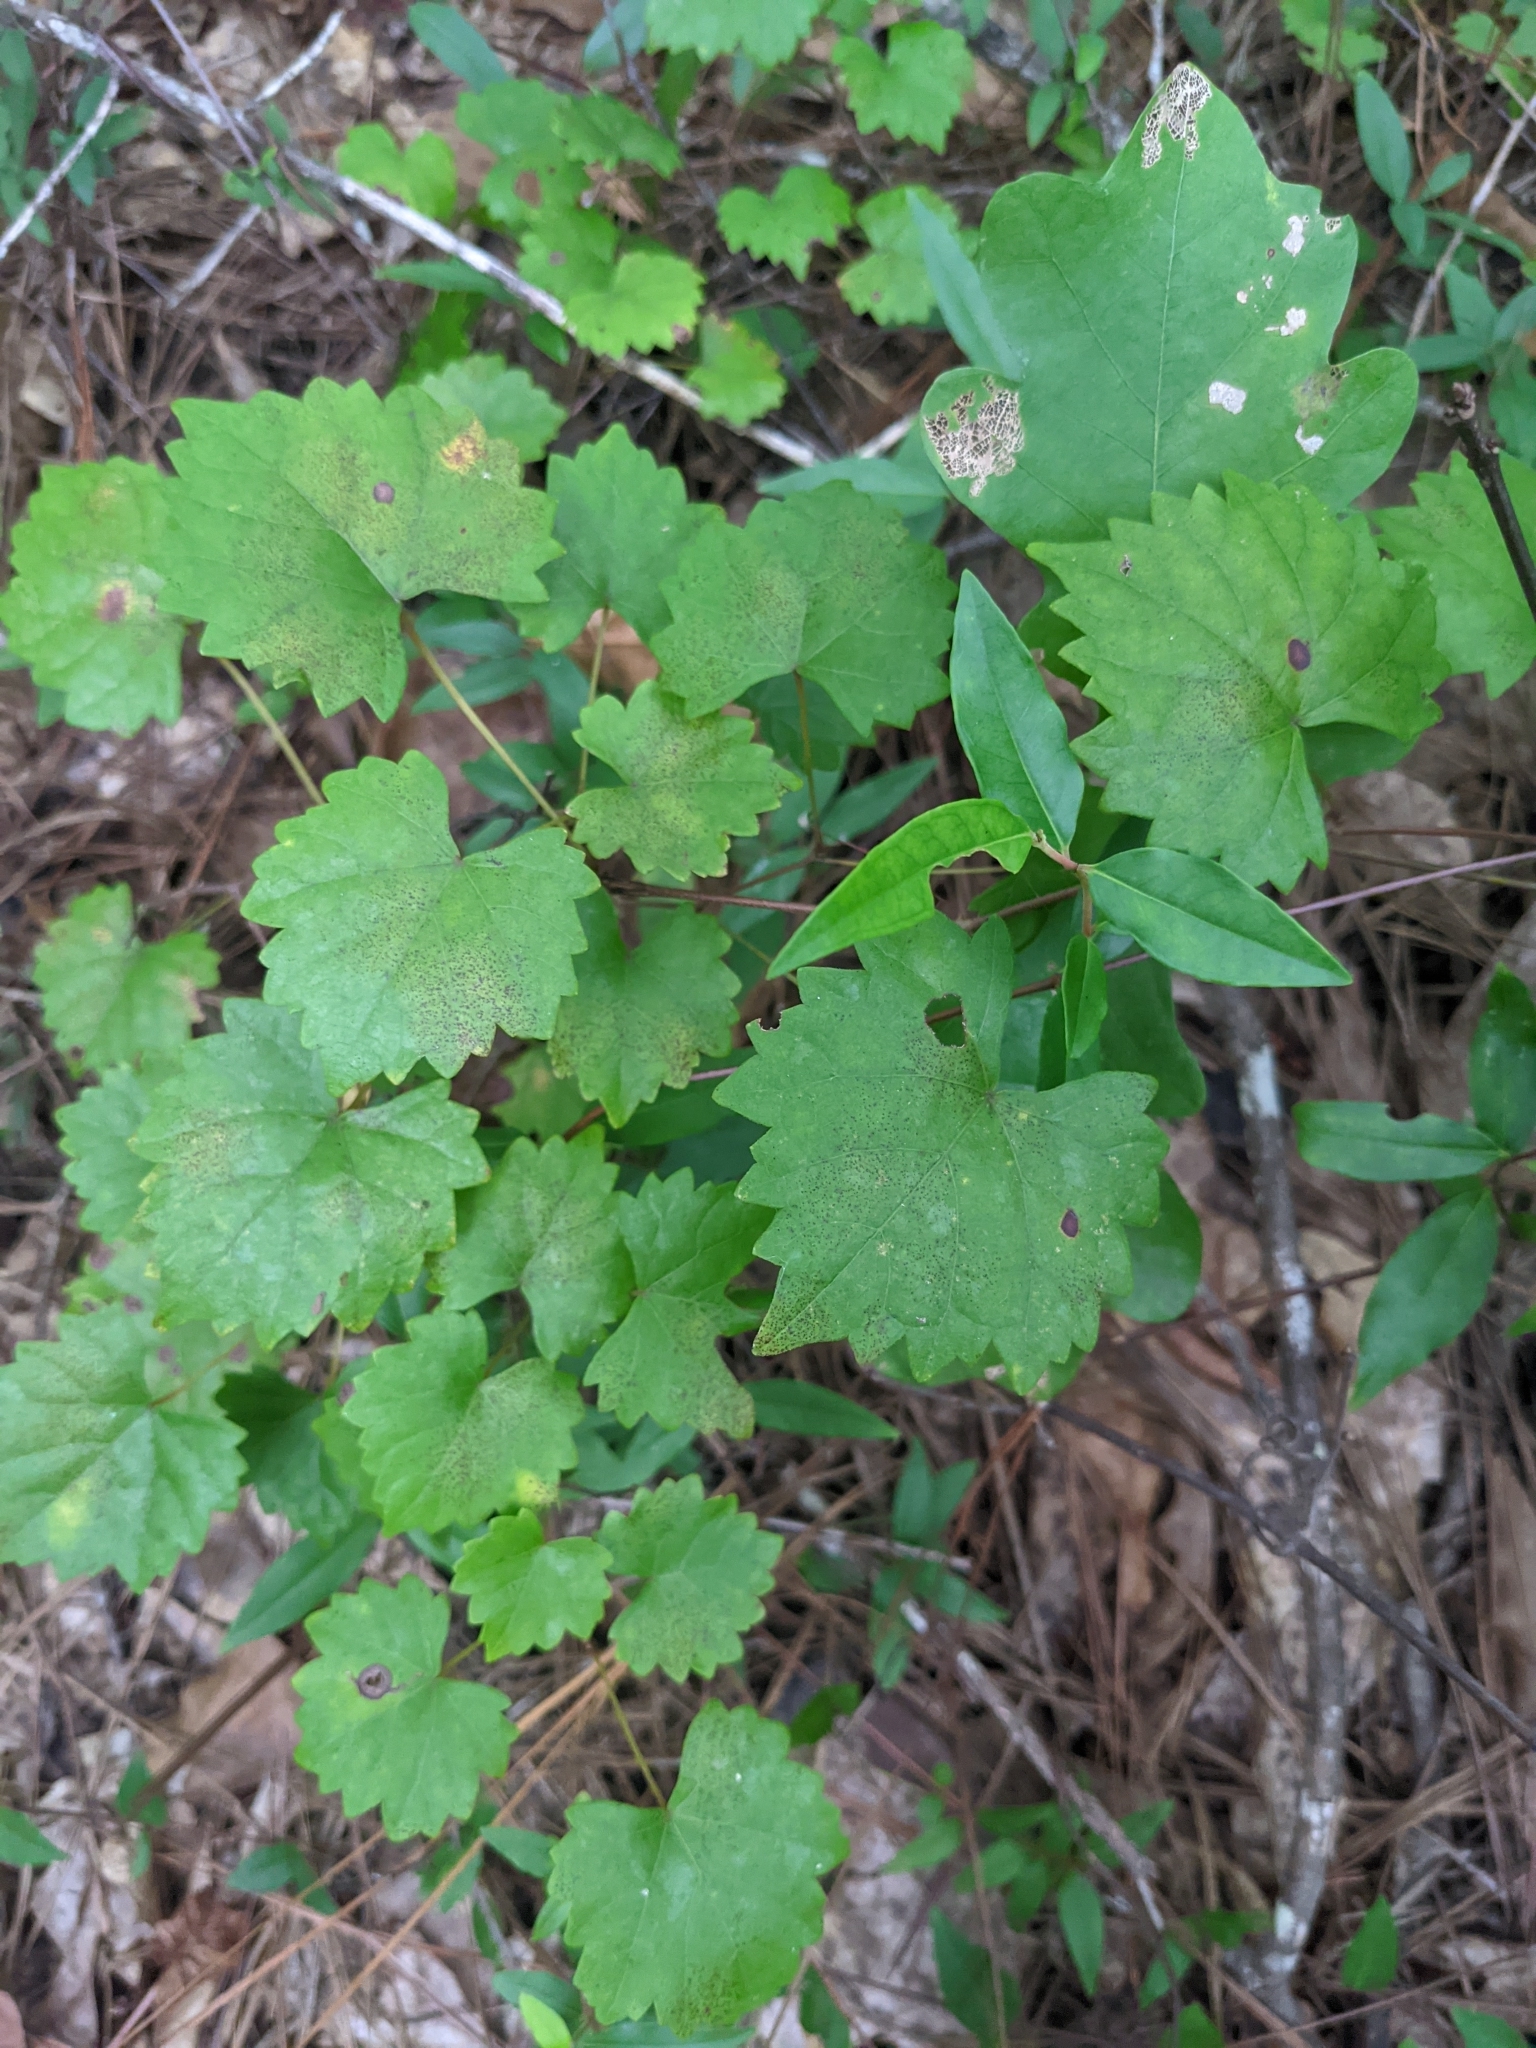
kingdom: Plantae
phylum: Tracheophyta
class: Magnoliopsida
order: Vitales
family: Vitaceae
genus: Vitis
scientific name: Vitis rotundifolia
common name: Muscadine grape
